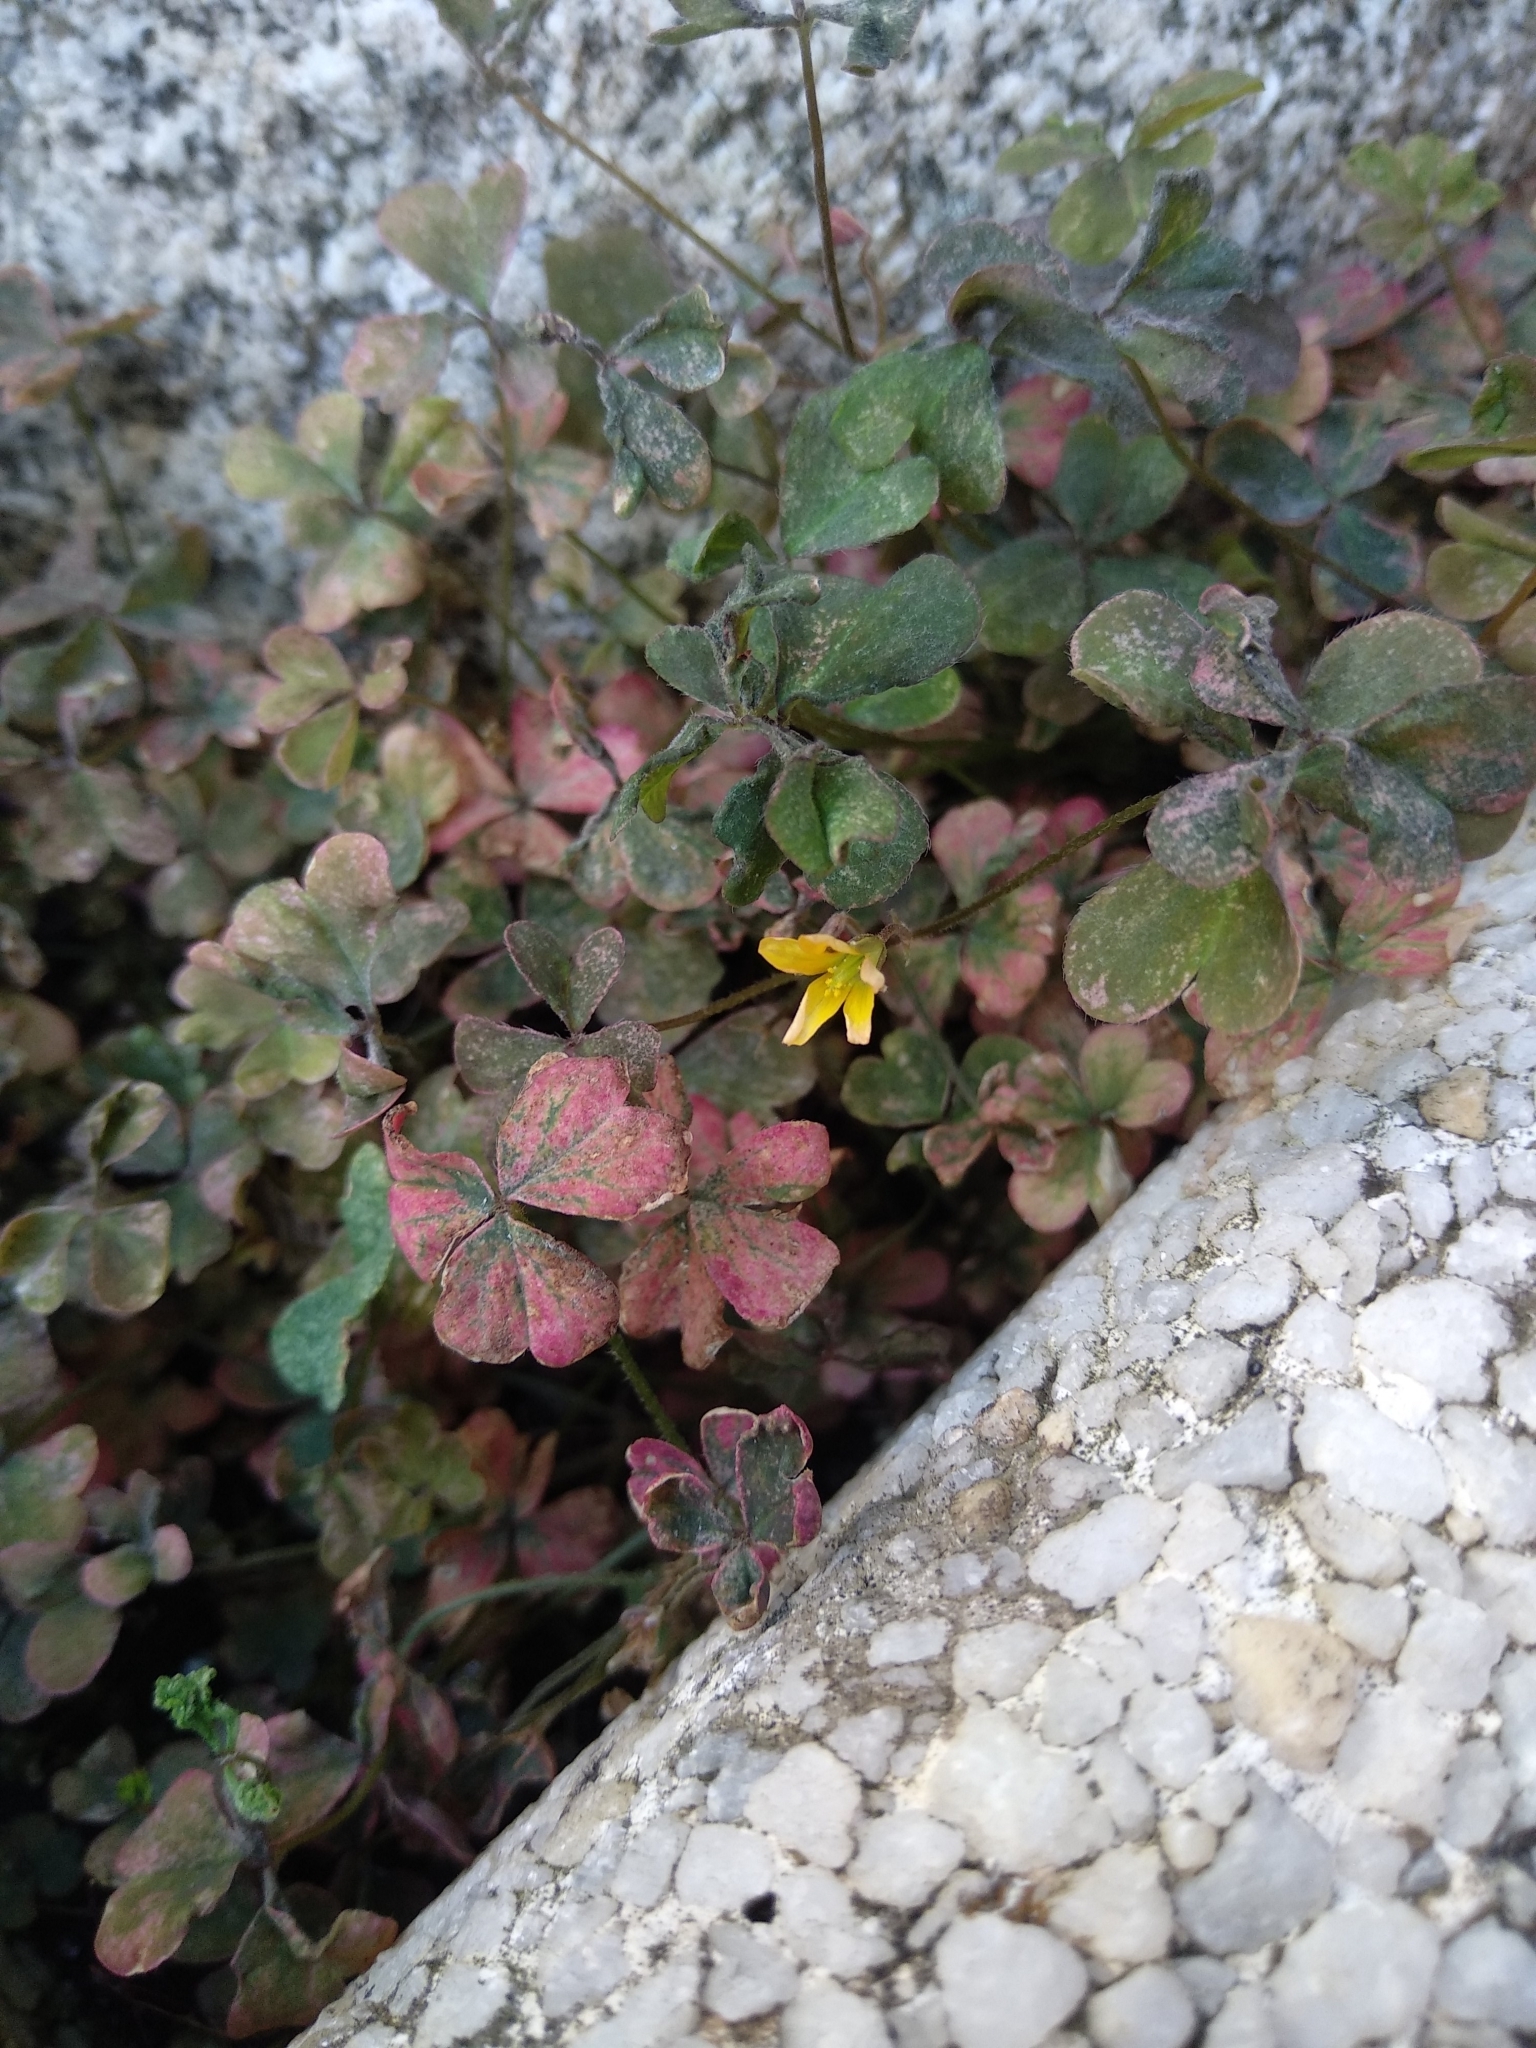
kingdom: Plantae
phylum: Tracheophyta
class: Magnoliopsida
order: Oxalidales
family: Oxalidaceae
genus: Oxalis
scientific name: Oxalis corniculata
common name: Procumbent yellow-sorrel
